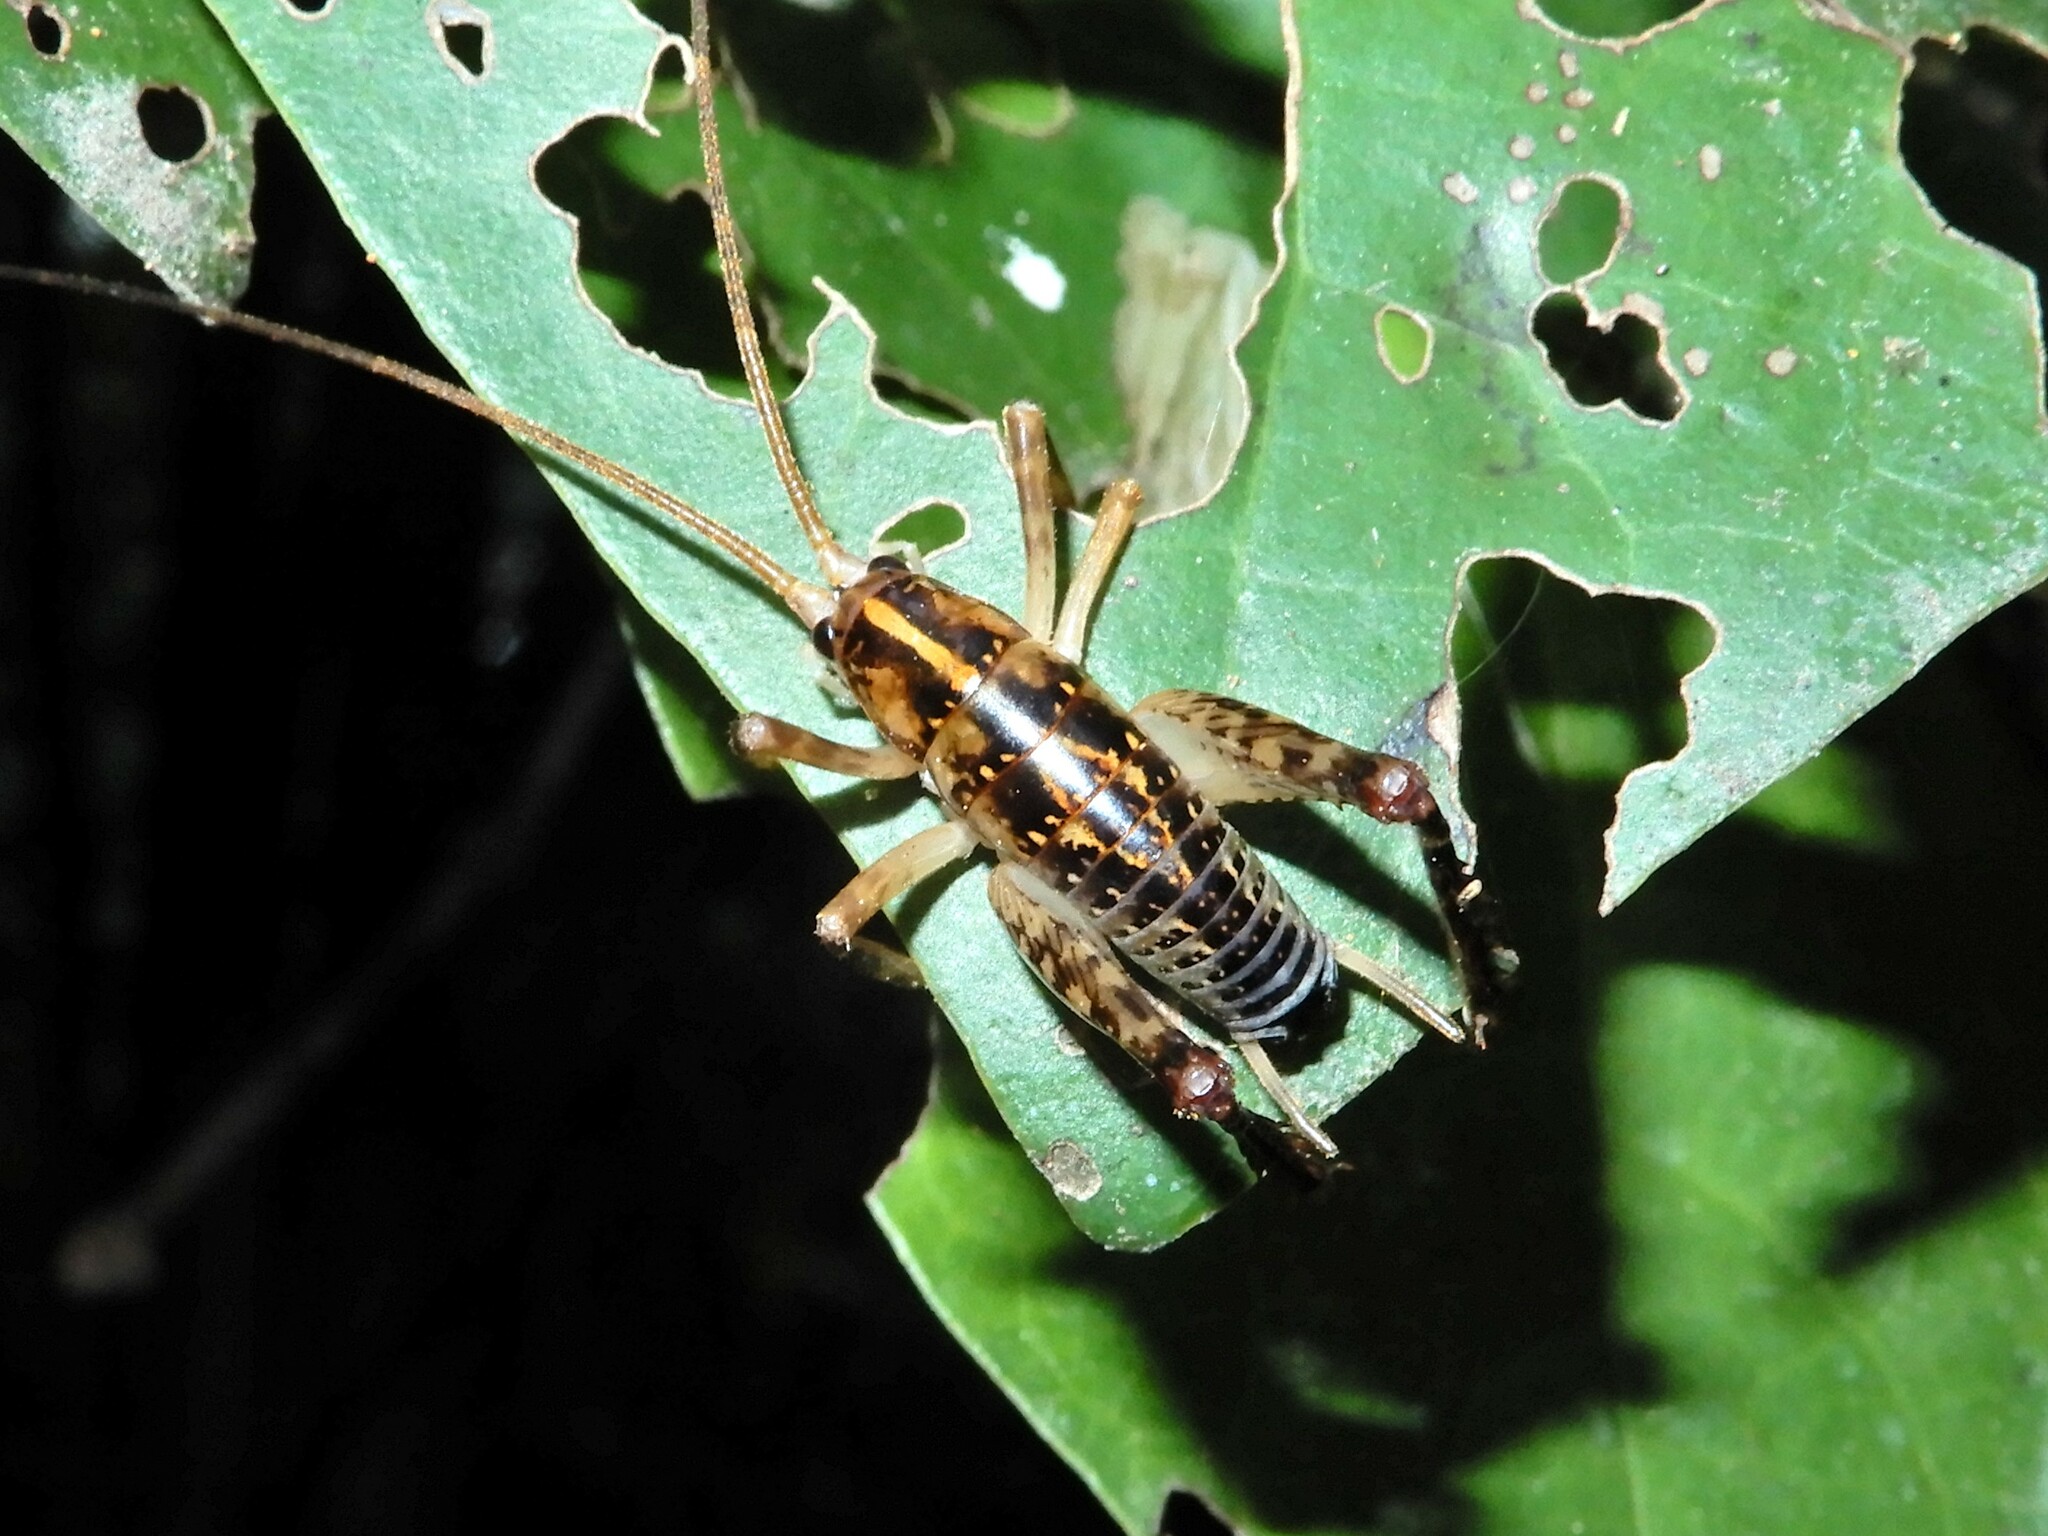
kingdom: Animalia
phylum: Arthropoda
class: Insecta
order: Orthoptera
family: Rhaphidophoridae
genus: Talitropsis
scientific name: Talitropsis sedilloti
